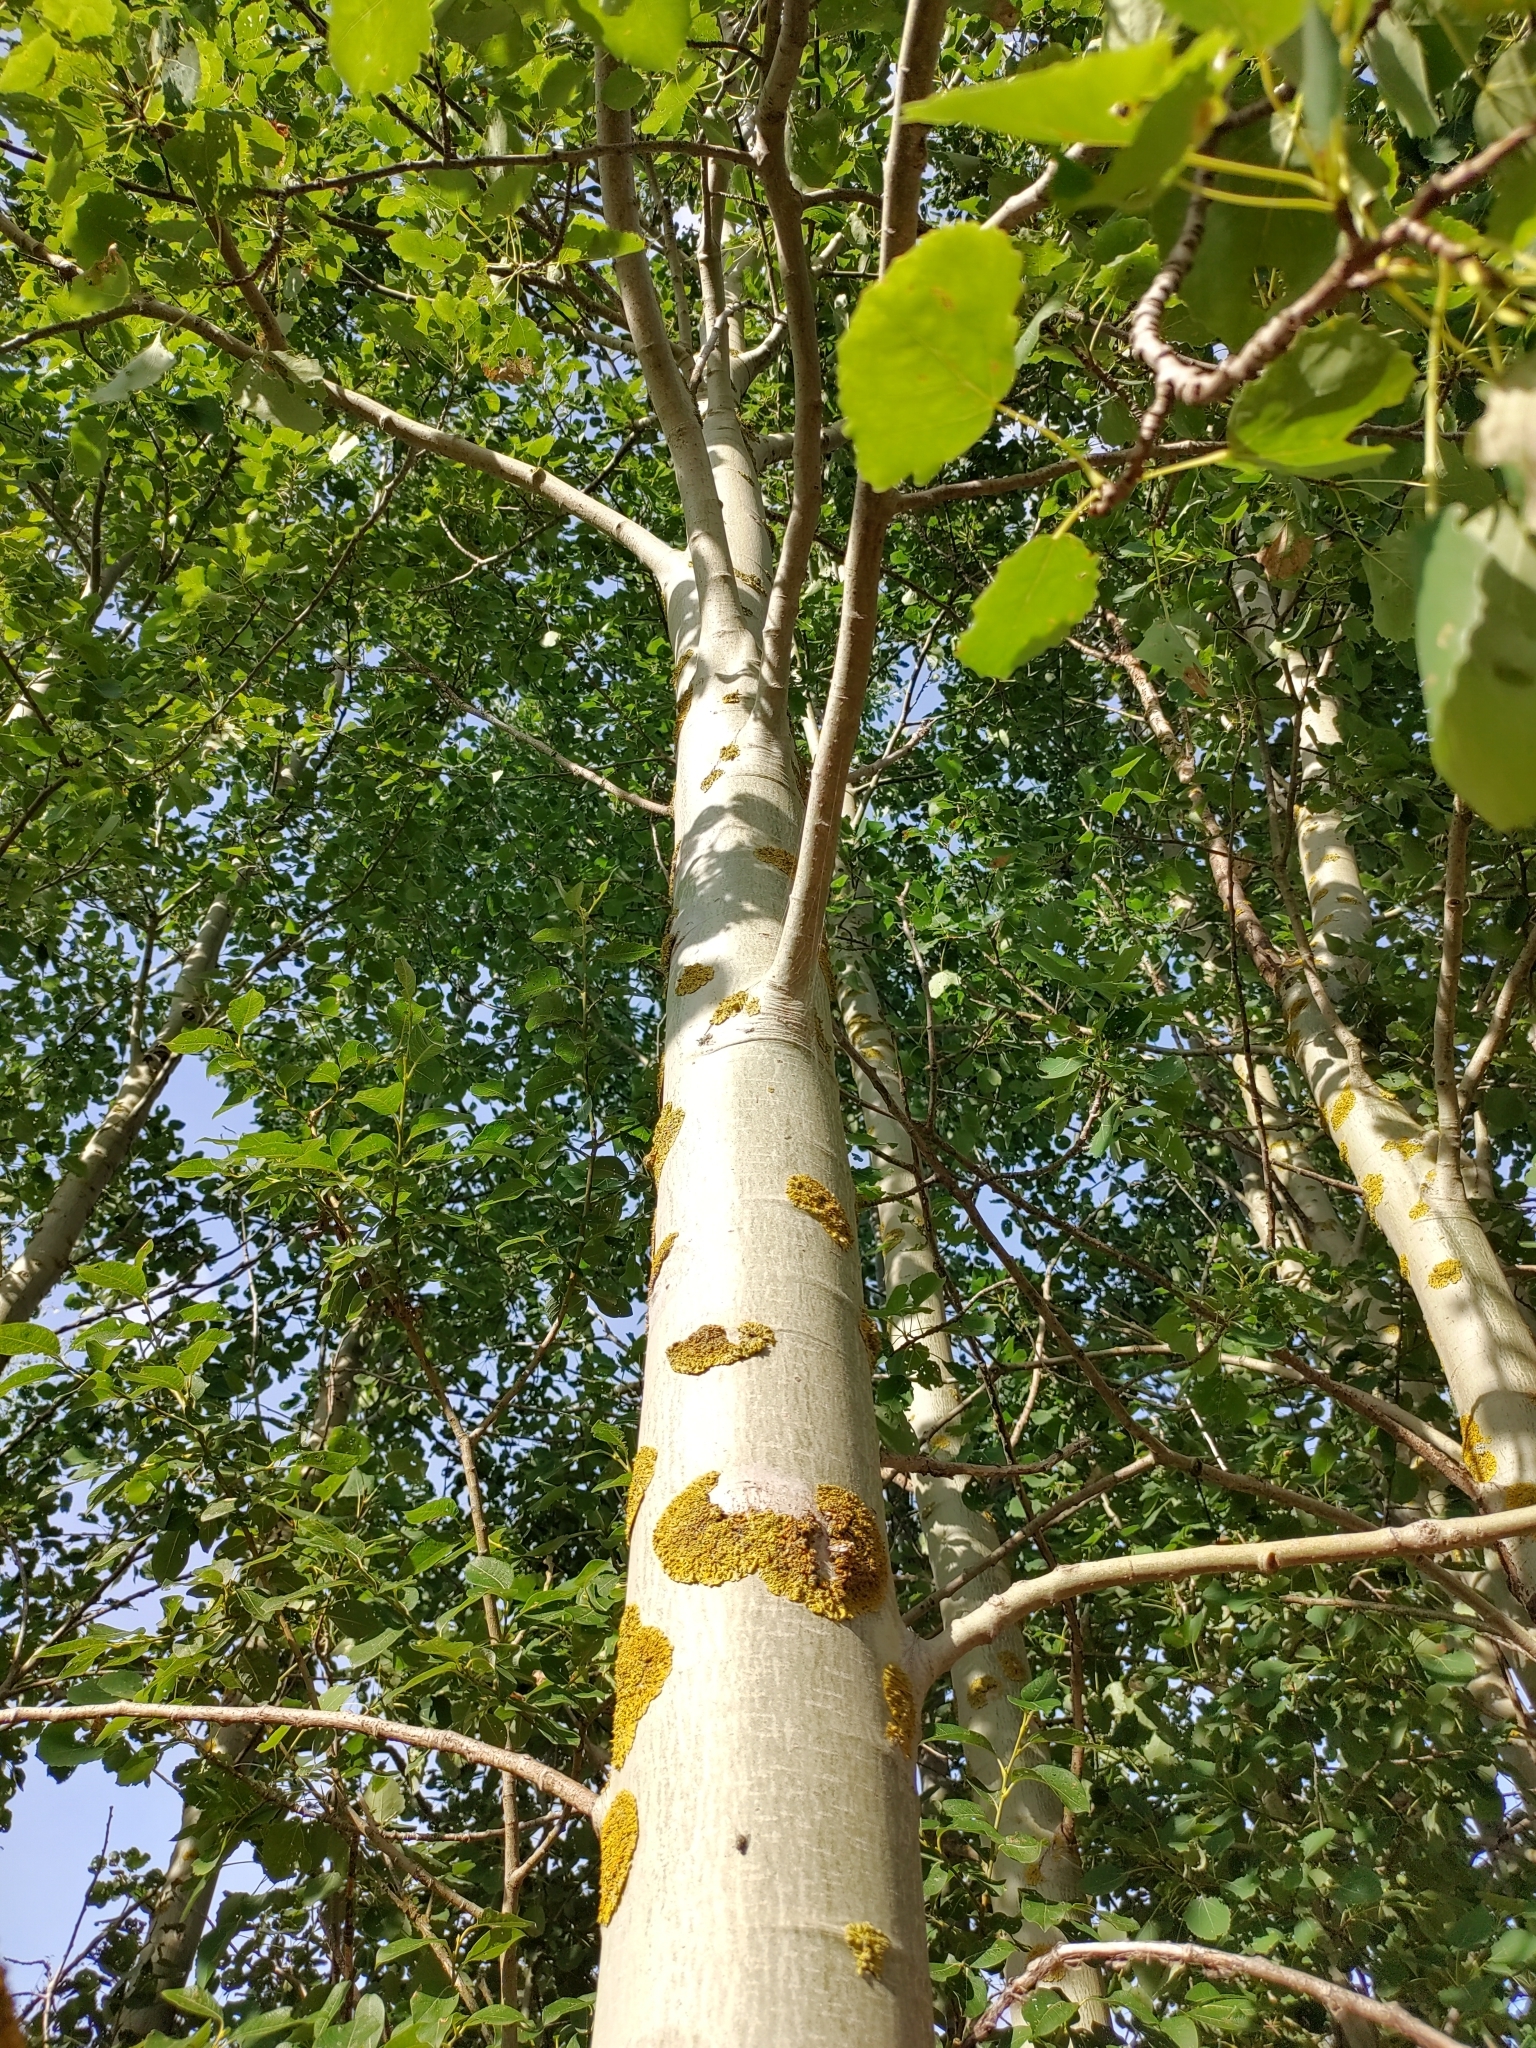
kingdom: Plantae
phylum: Tracheophyta
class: Magnoliopsida
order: Malpighiales
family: Salicaceae
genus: Populus
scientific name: Populus tremula
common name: European aspen
